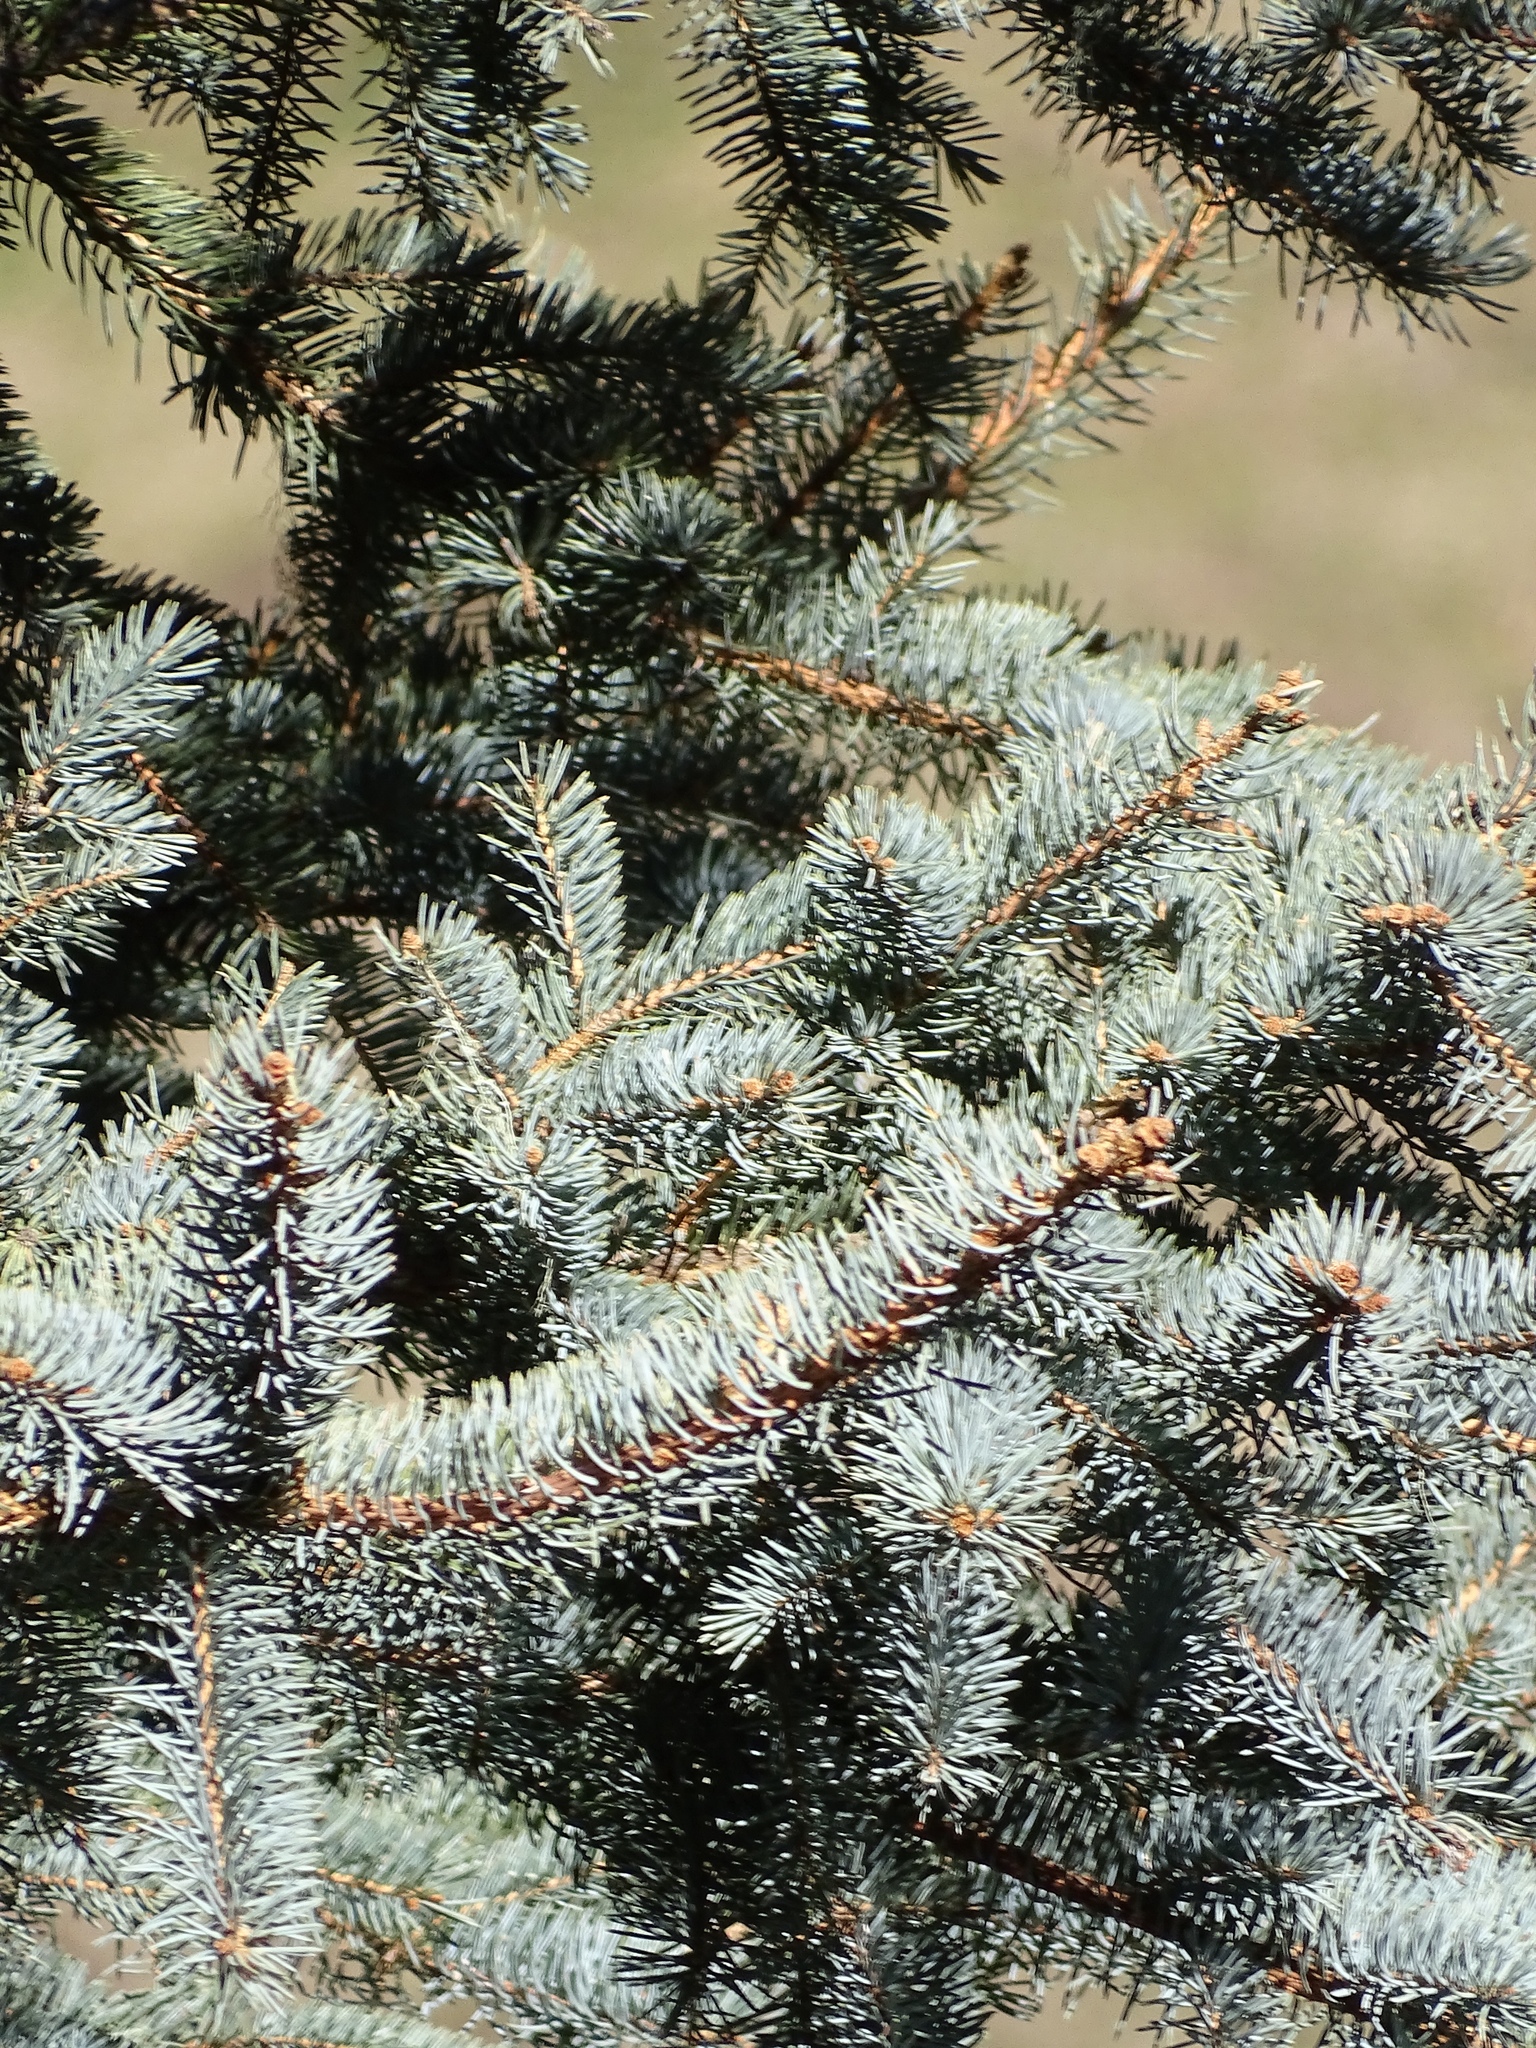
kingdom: Plantae
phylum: Tracheophyta
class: Pinopsida
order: Pinales
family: Pinaceae
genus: Picea
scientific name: Picea pungens
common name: Colorado spruce
